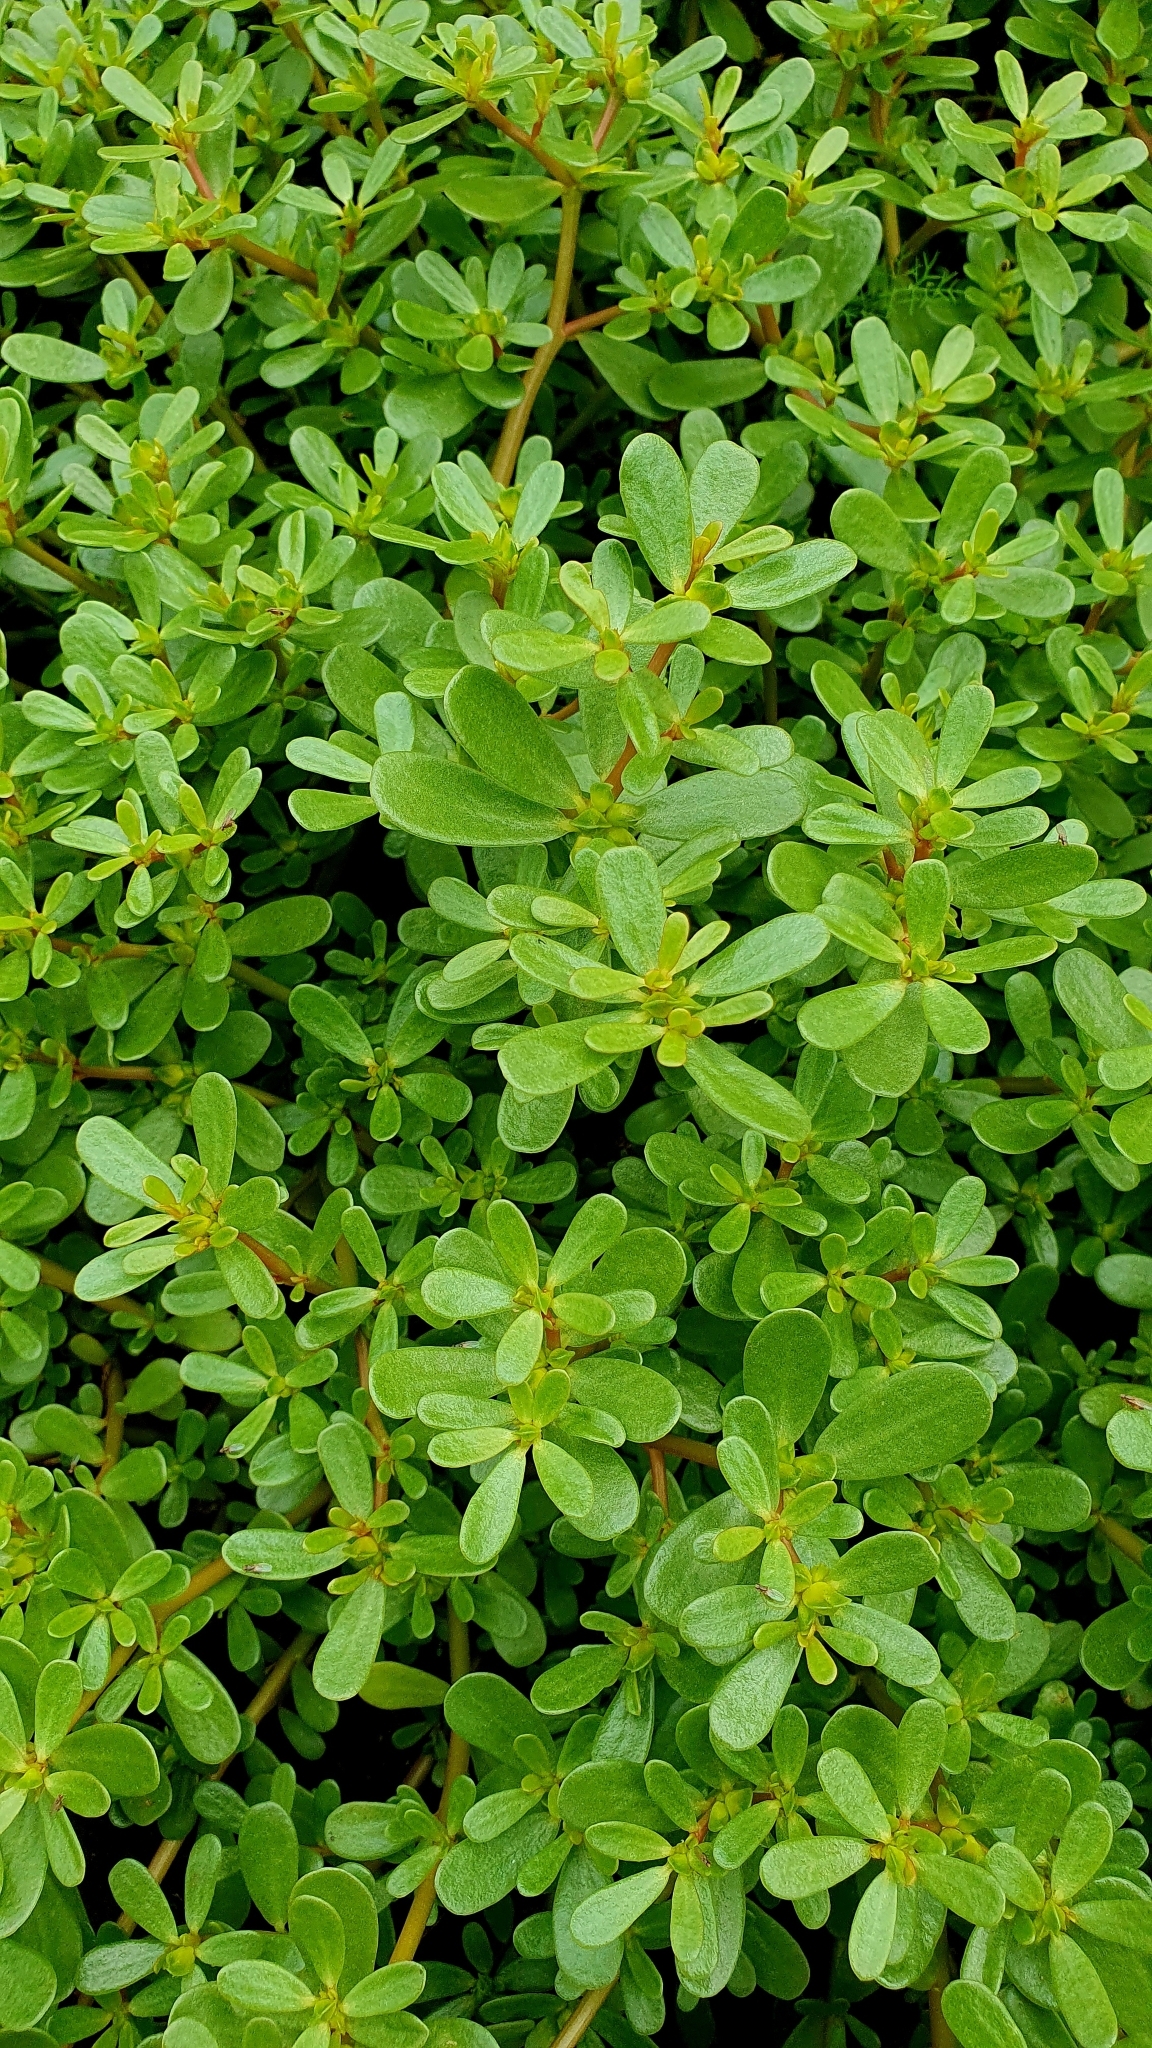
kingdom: Plantae
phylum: Tracheophyta
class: Magnoliopsida
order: Caryophyllales
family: Portulacaceae
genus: Portulaca
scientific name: Portulaca oleracea
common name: Common purslane
